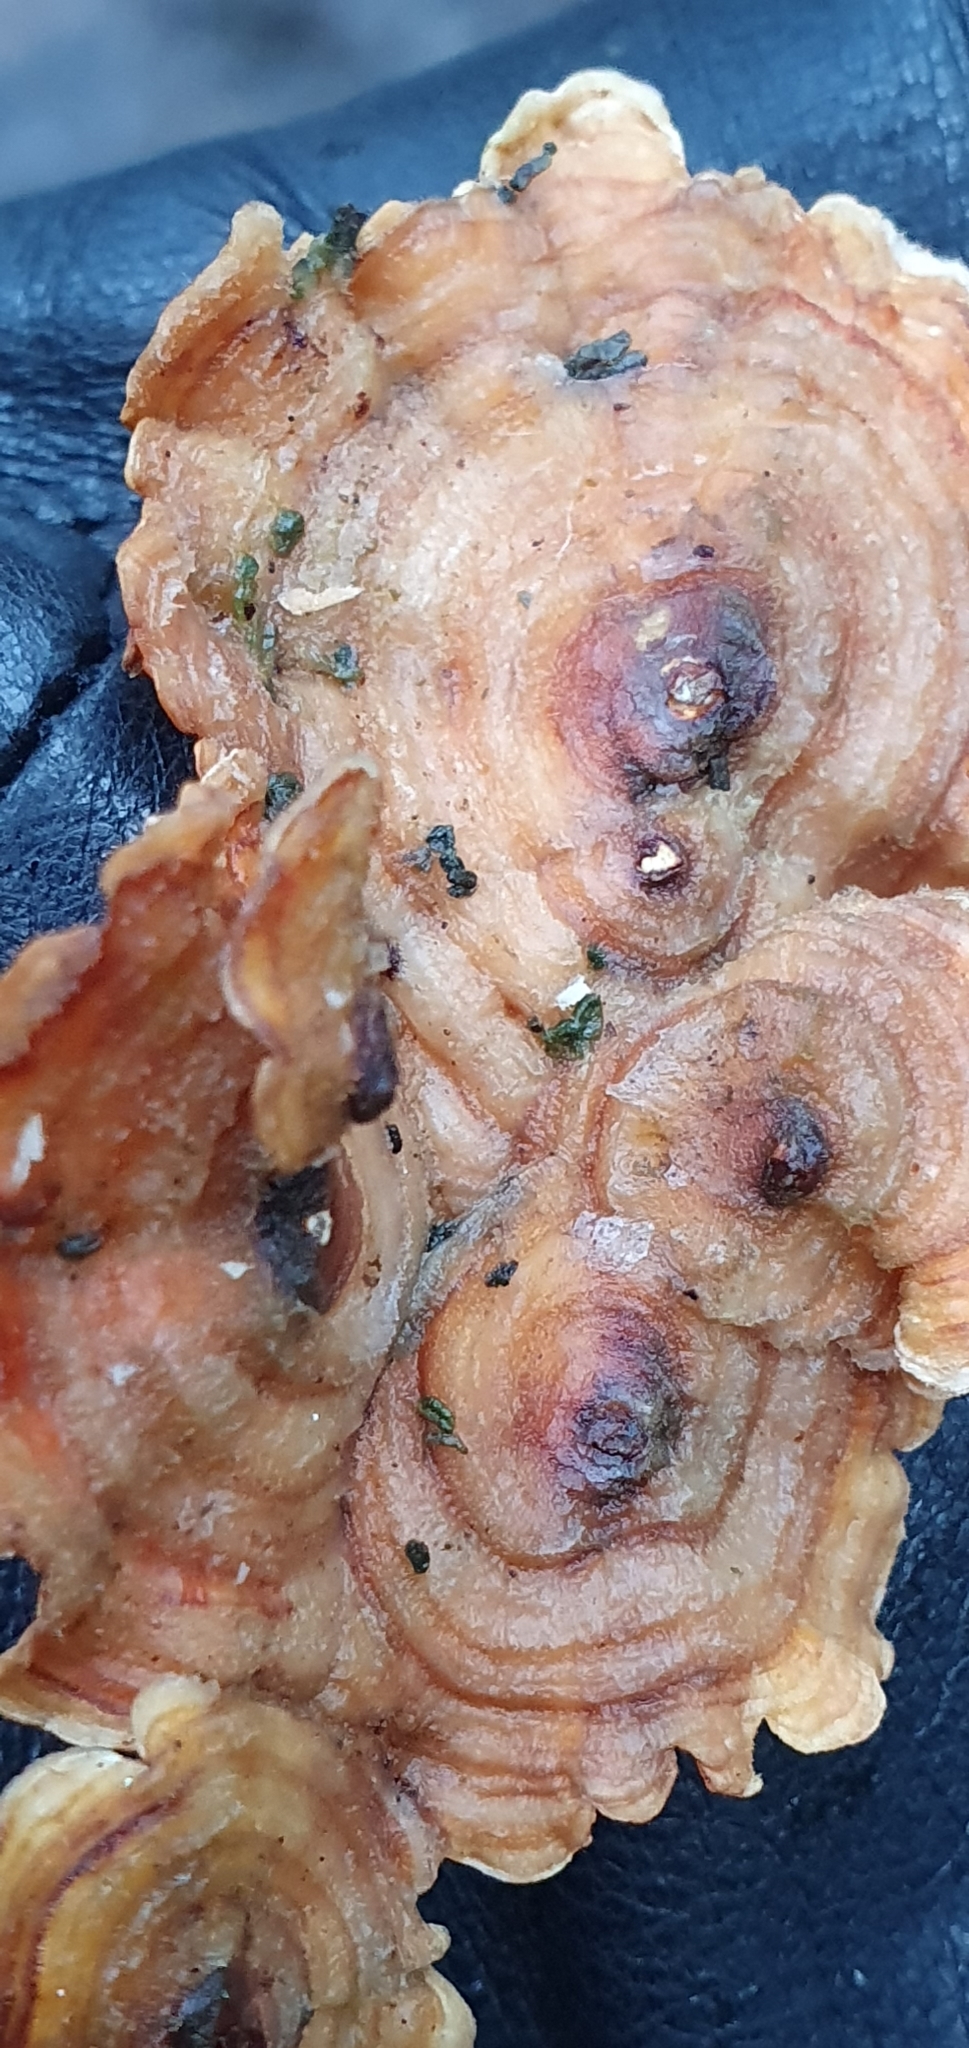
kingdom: Fungi
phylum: Basidiomycota
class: Agaricomycetes
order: Russulales
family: Stereaceae
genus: Stereum
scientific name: Stereum subtomentosum
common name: Yellowing curtain crust
